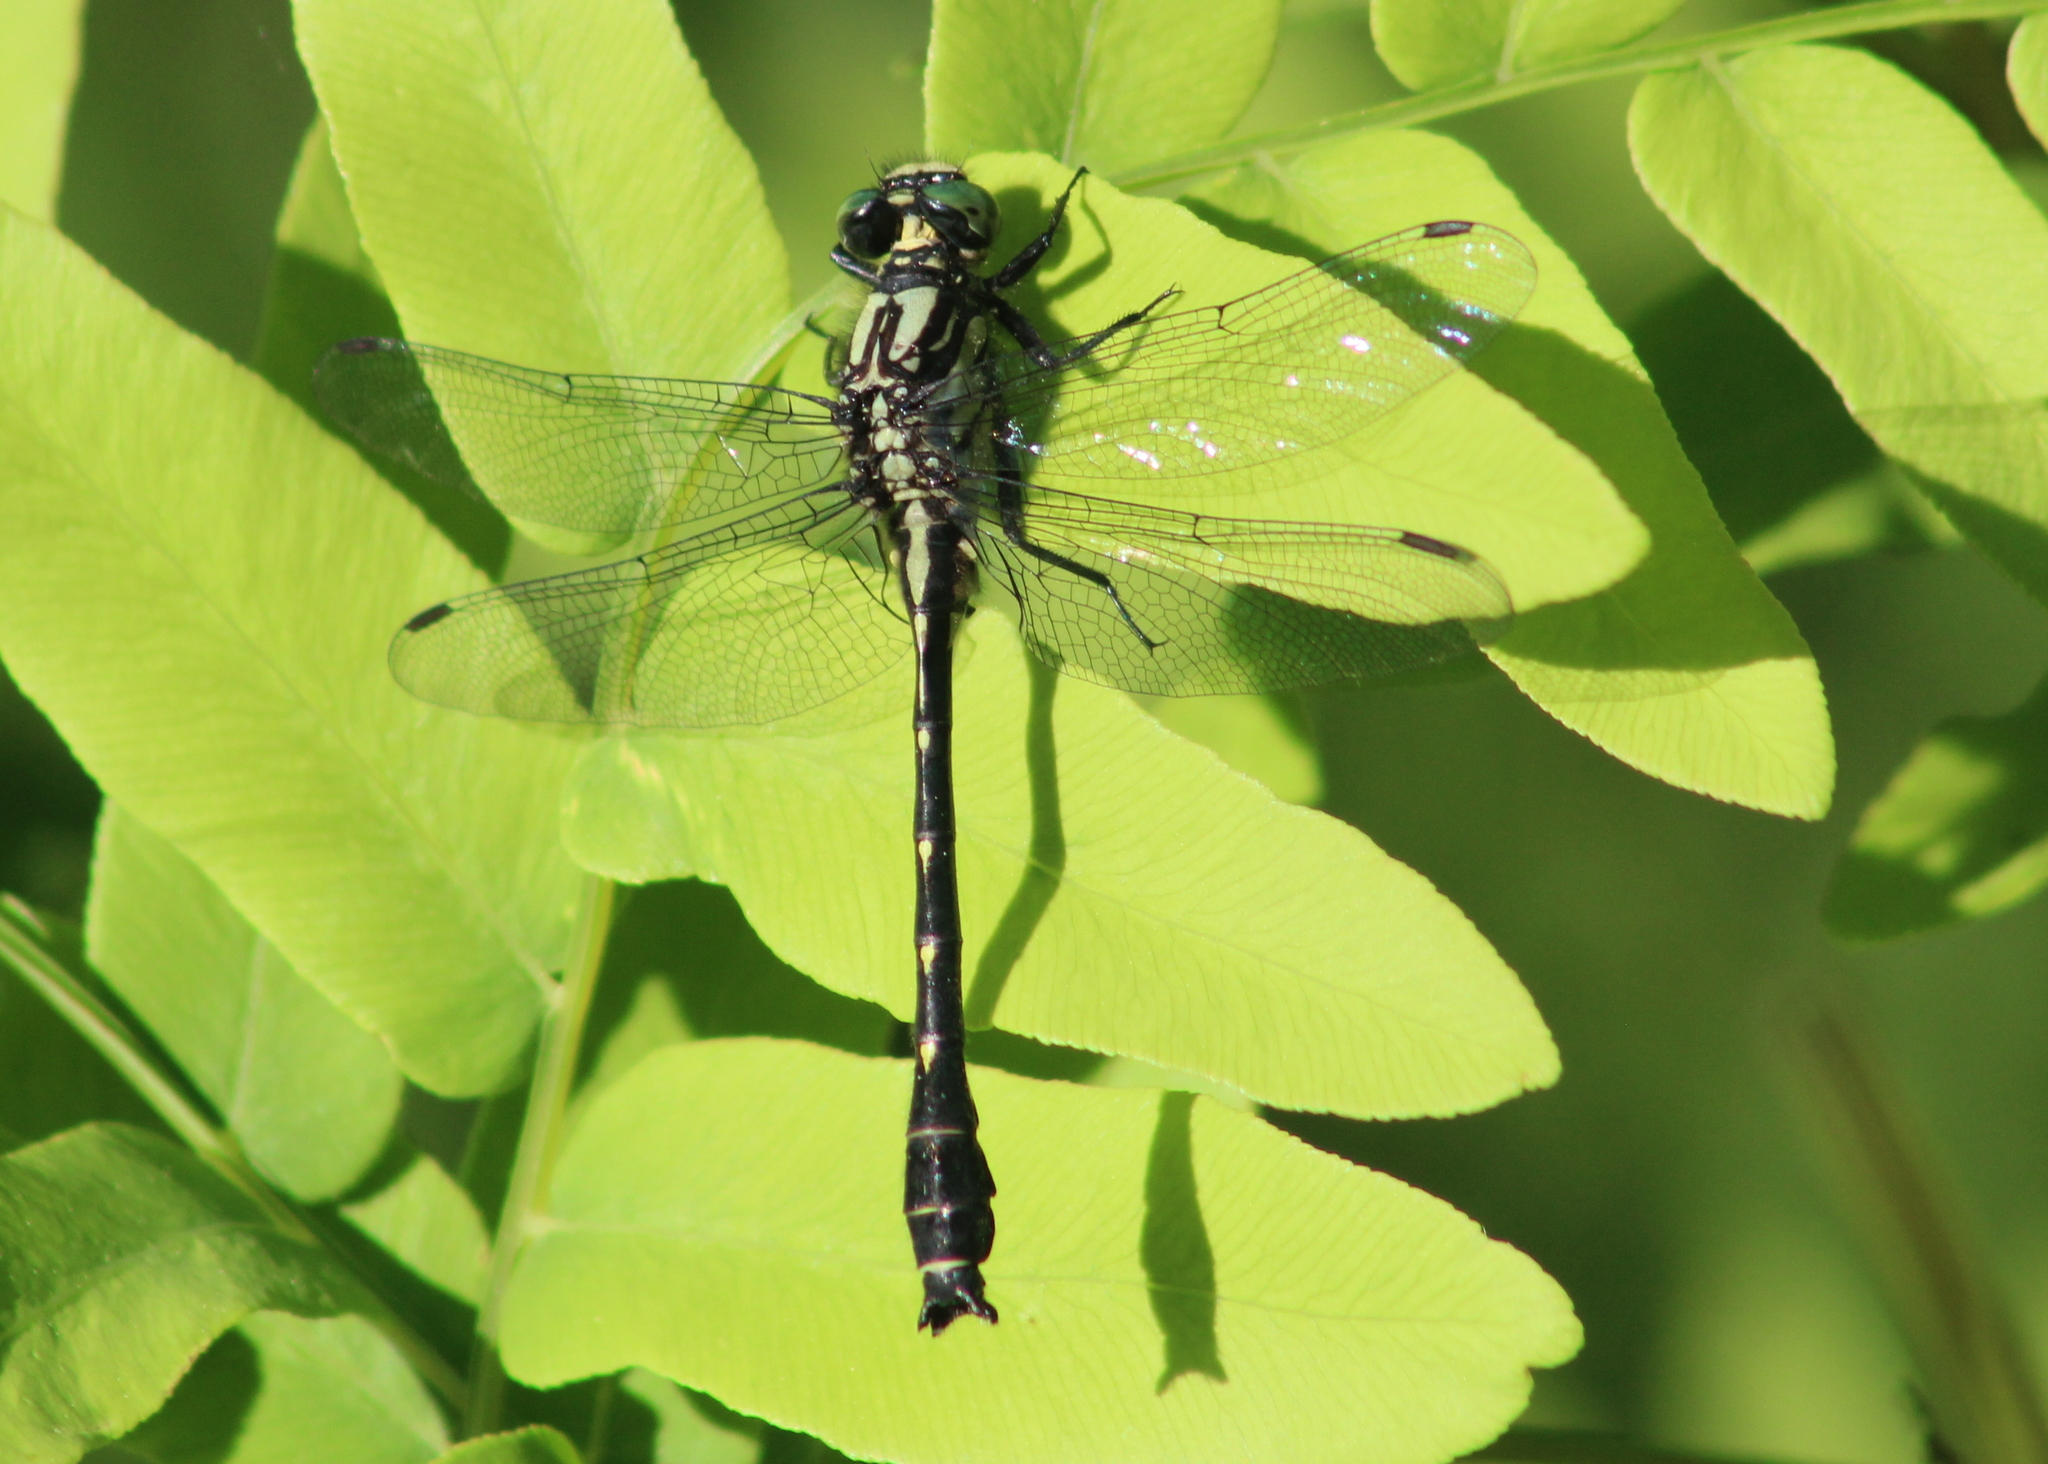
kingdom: Animalia
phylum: Arthropoda
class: Insecta
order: Odonata
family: Gomphidae
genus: Hylogomphus
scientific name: Hylogomphus adelphus
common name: Mustached clubtail
